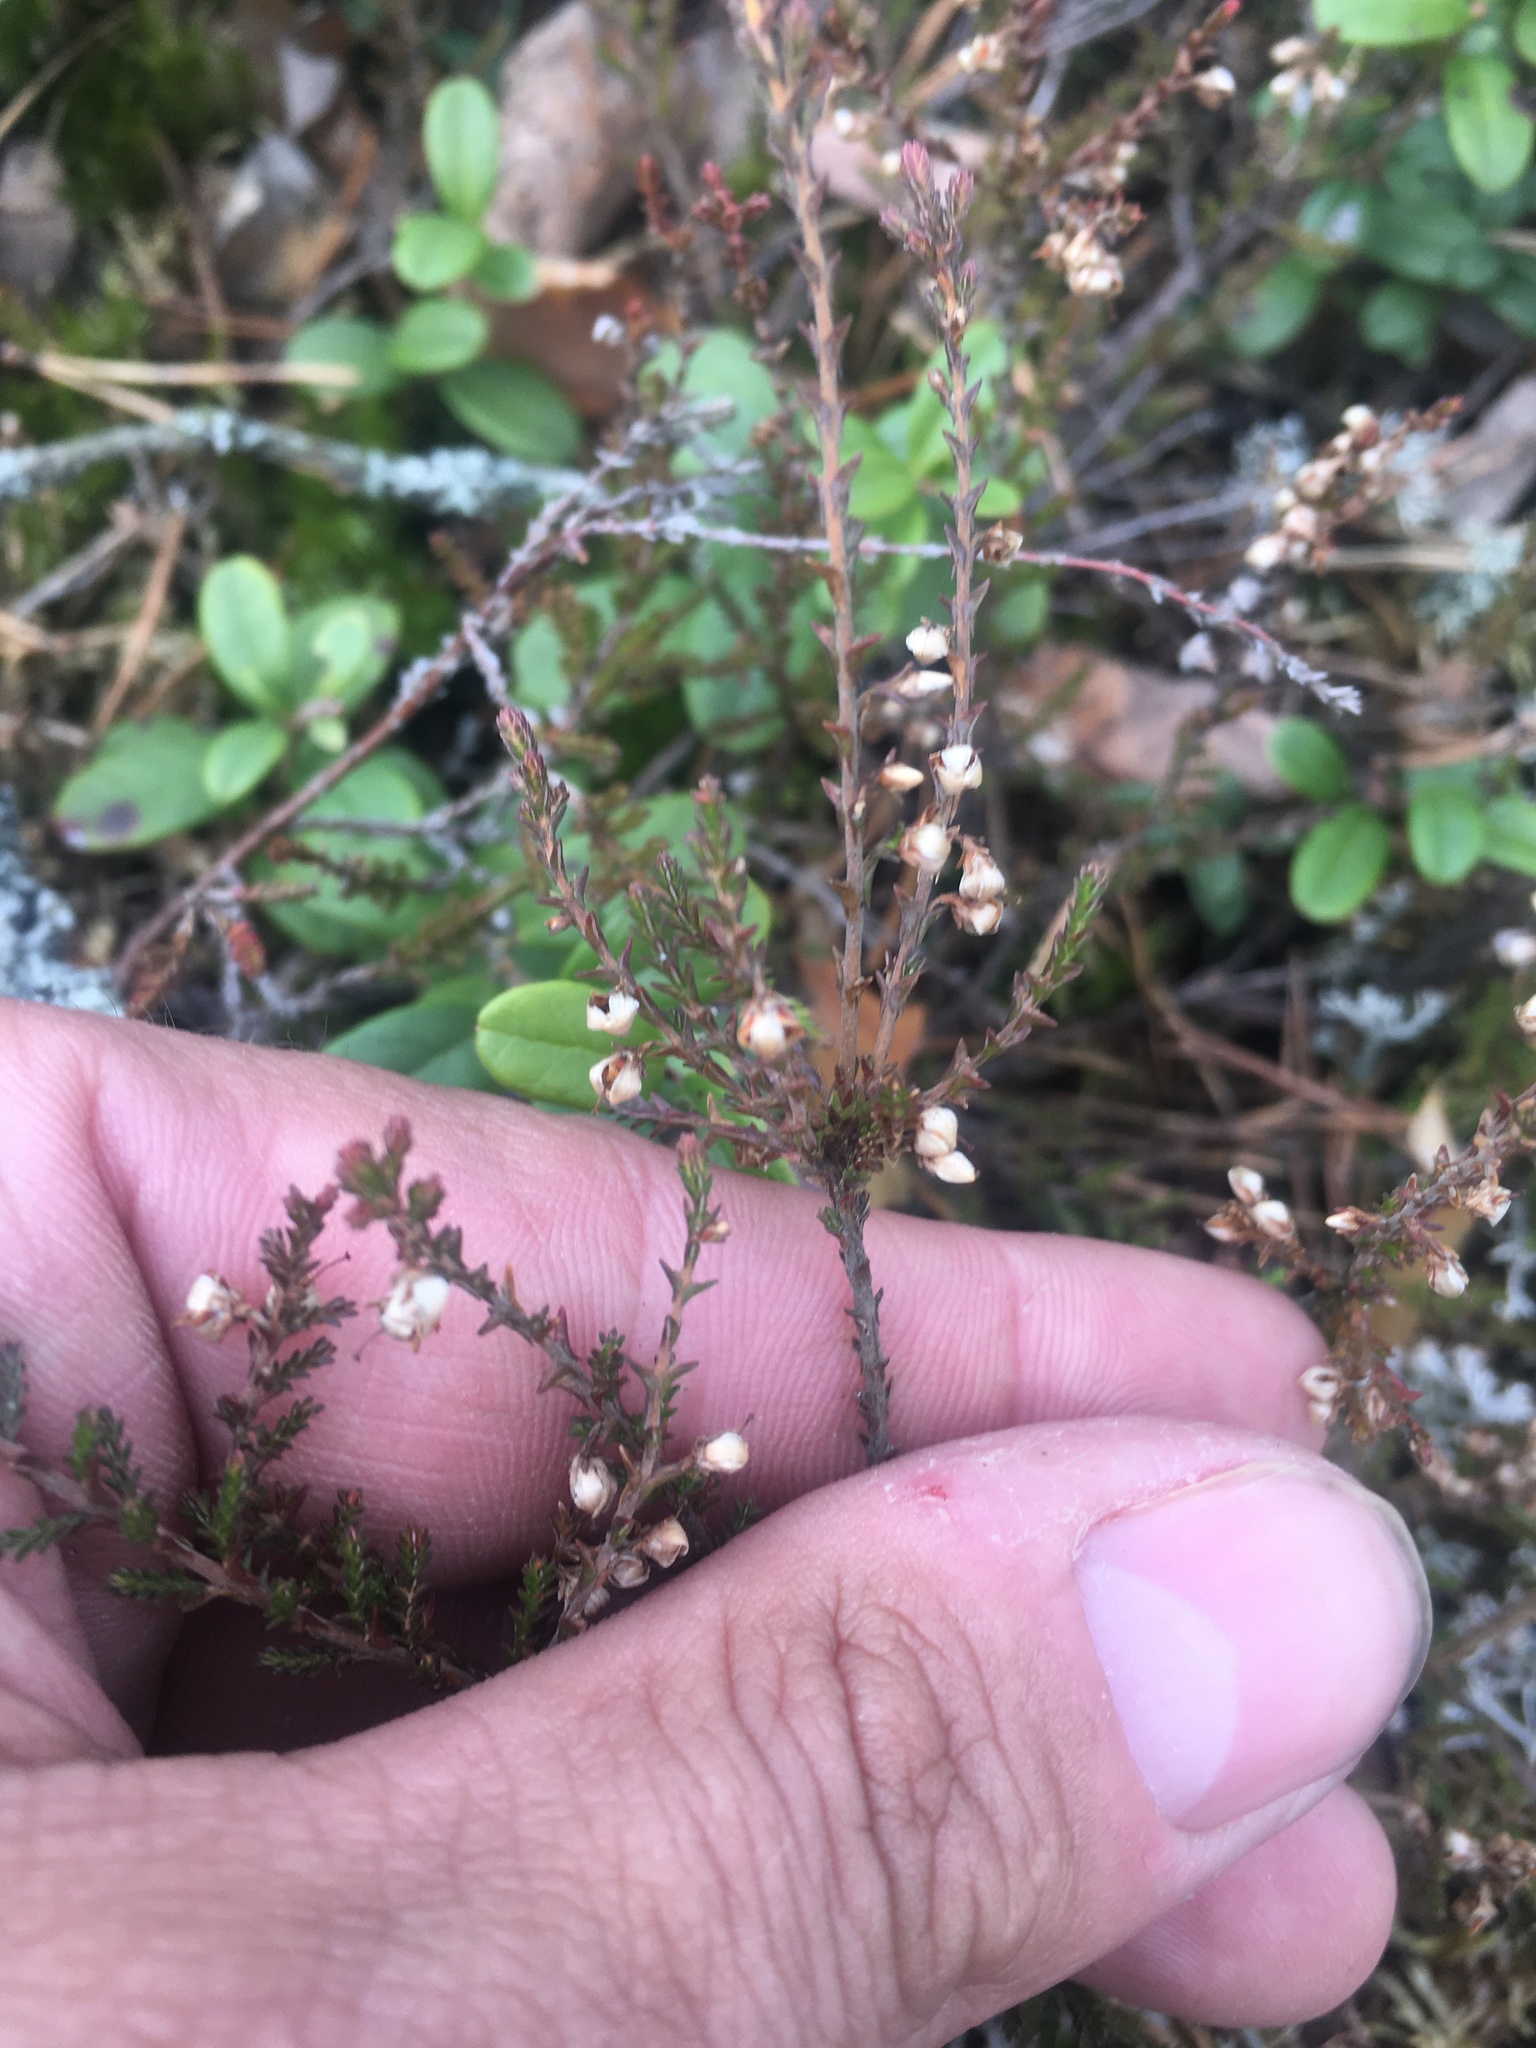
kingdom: Plantae
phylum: Tracheophyta
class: Magnoliopsida
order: Ericales
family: Ericaceae
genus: Calluna
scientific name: Calluna vulgaris
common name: Heather
